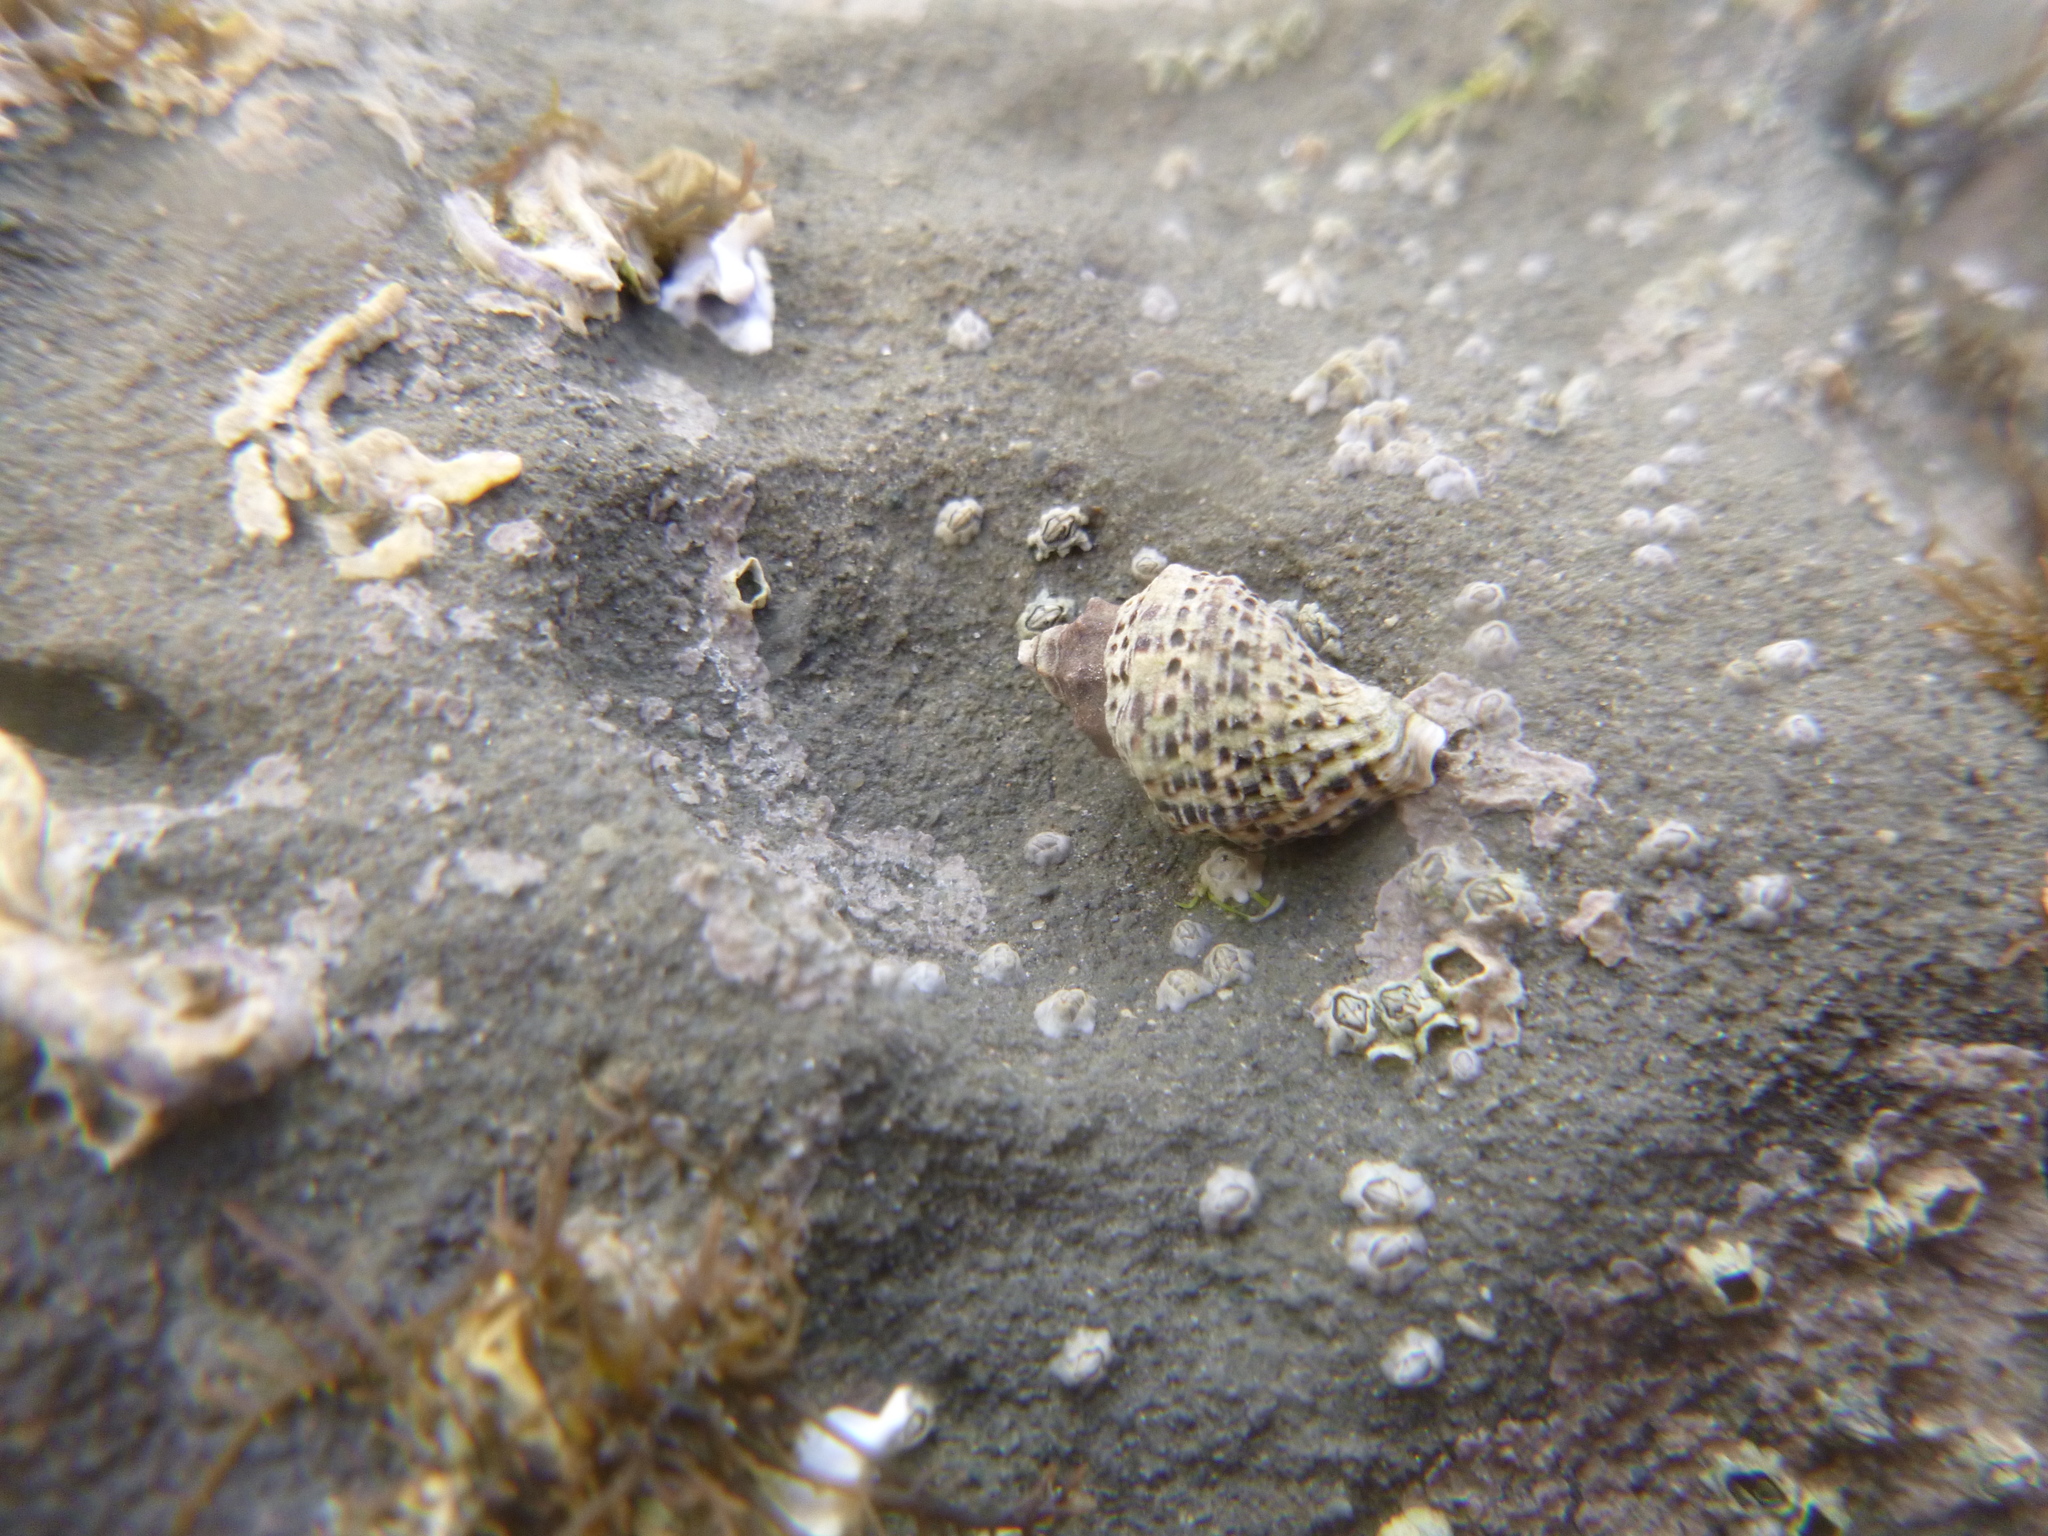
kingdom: Animalia
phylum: Mollusca
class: Gastropoda
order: Neogastropoda
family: Muricidae
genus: Haustrum
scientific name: Haustrum scobina
